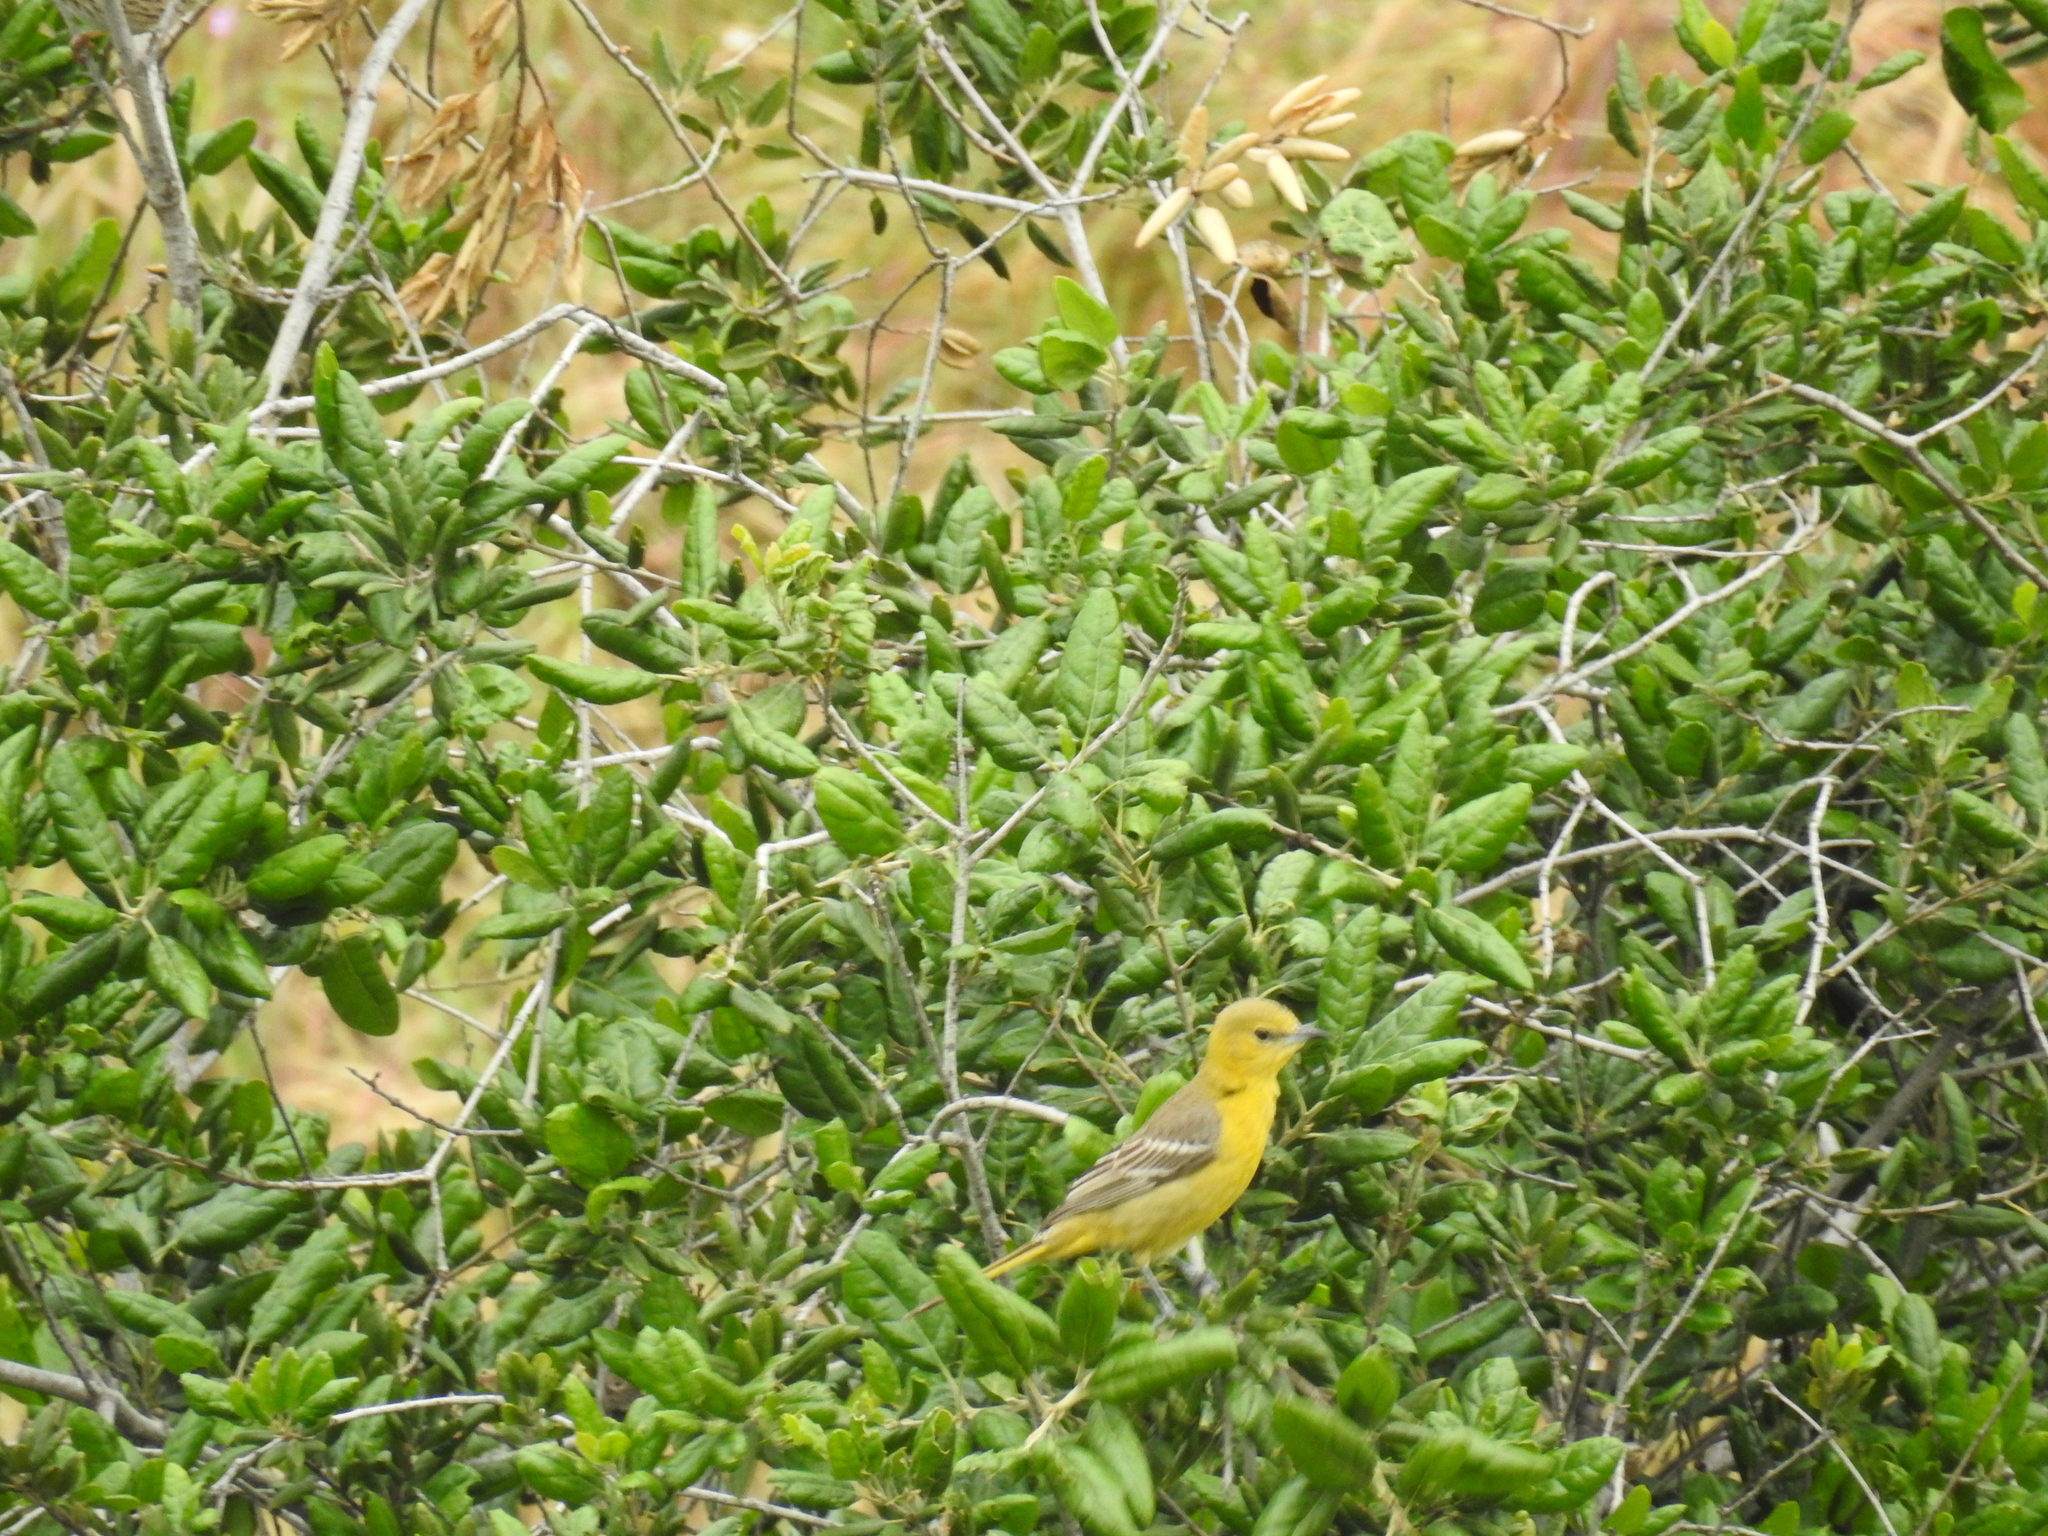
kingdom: Animalia
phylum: Chordata
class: Aves
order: Passeriformes
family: Icteridae
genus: Icterus
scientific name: Icterus cucullatus
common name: Hooded oriole
